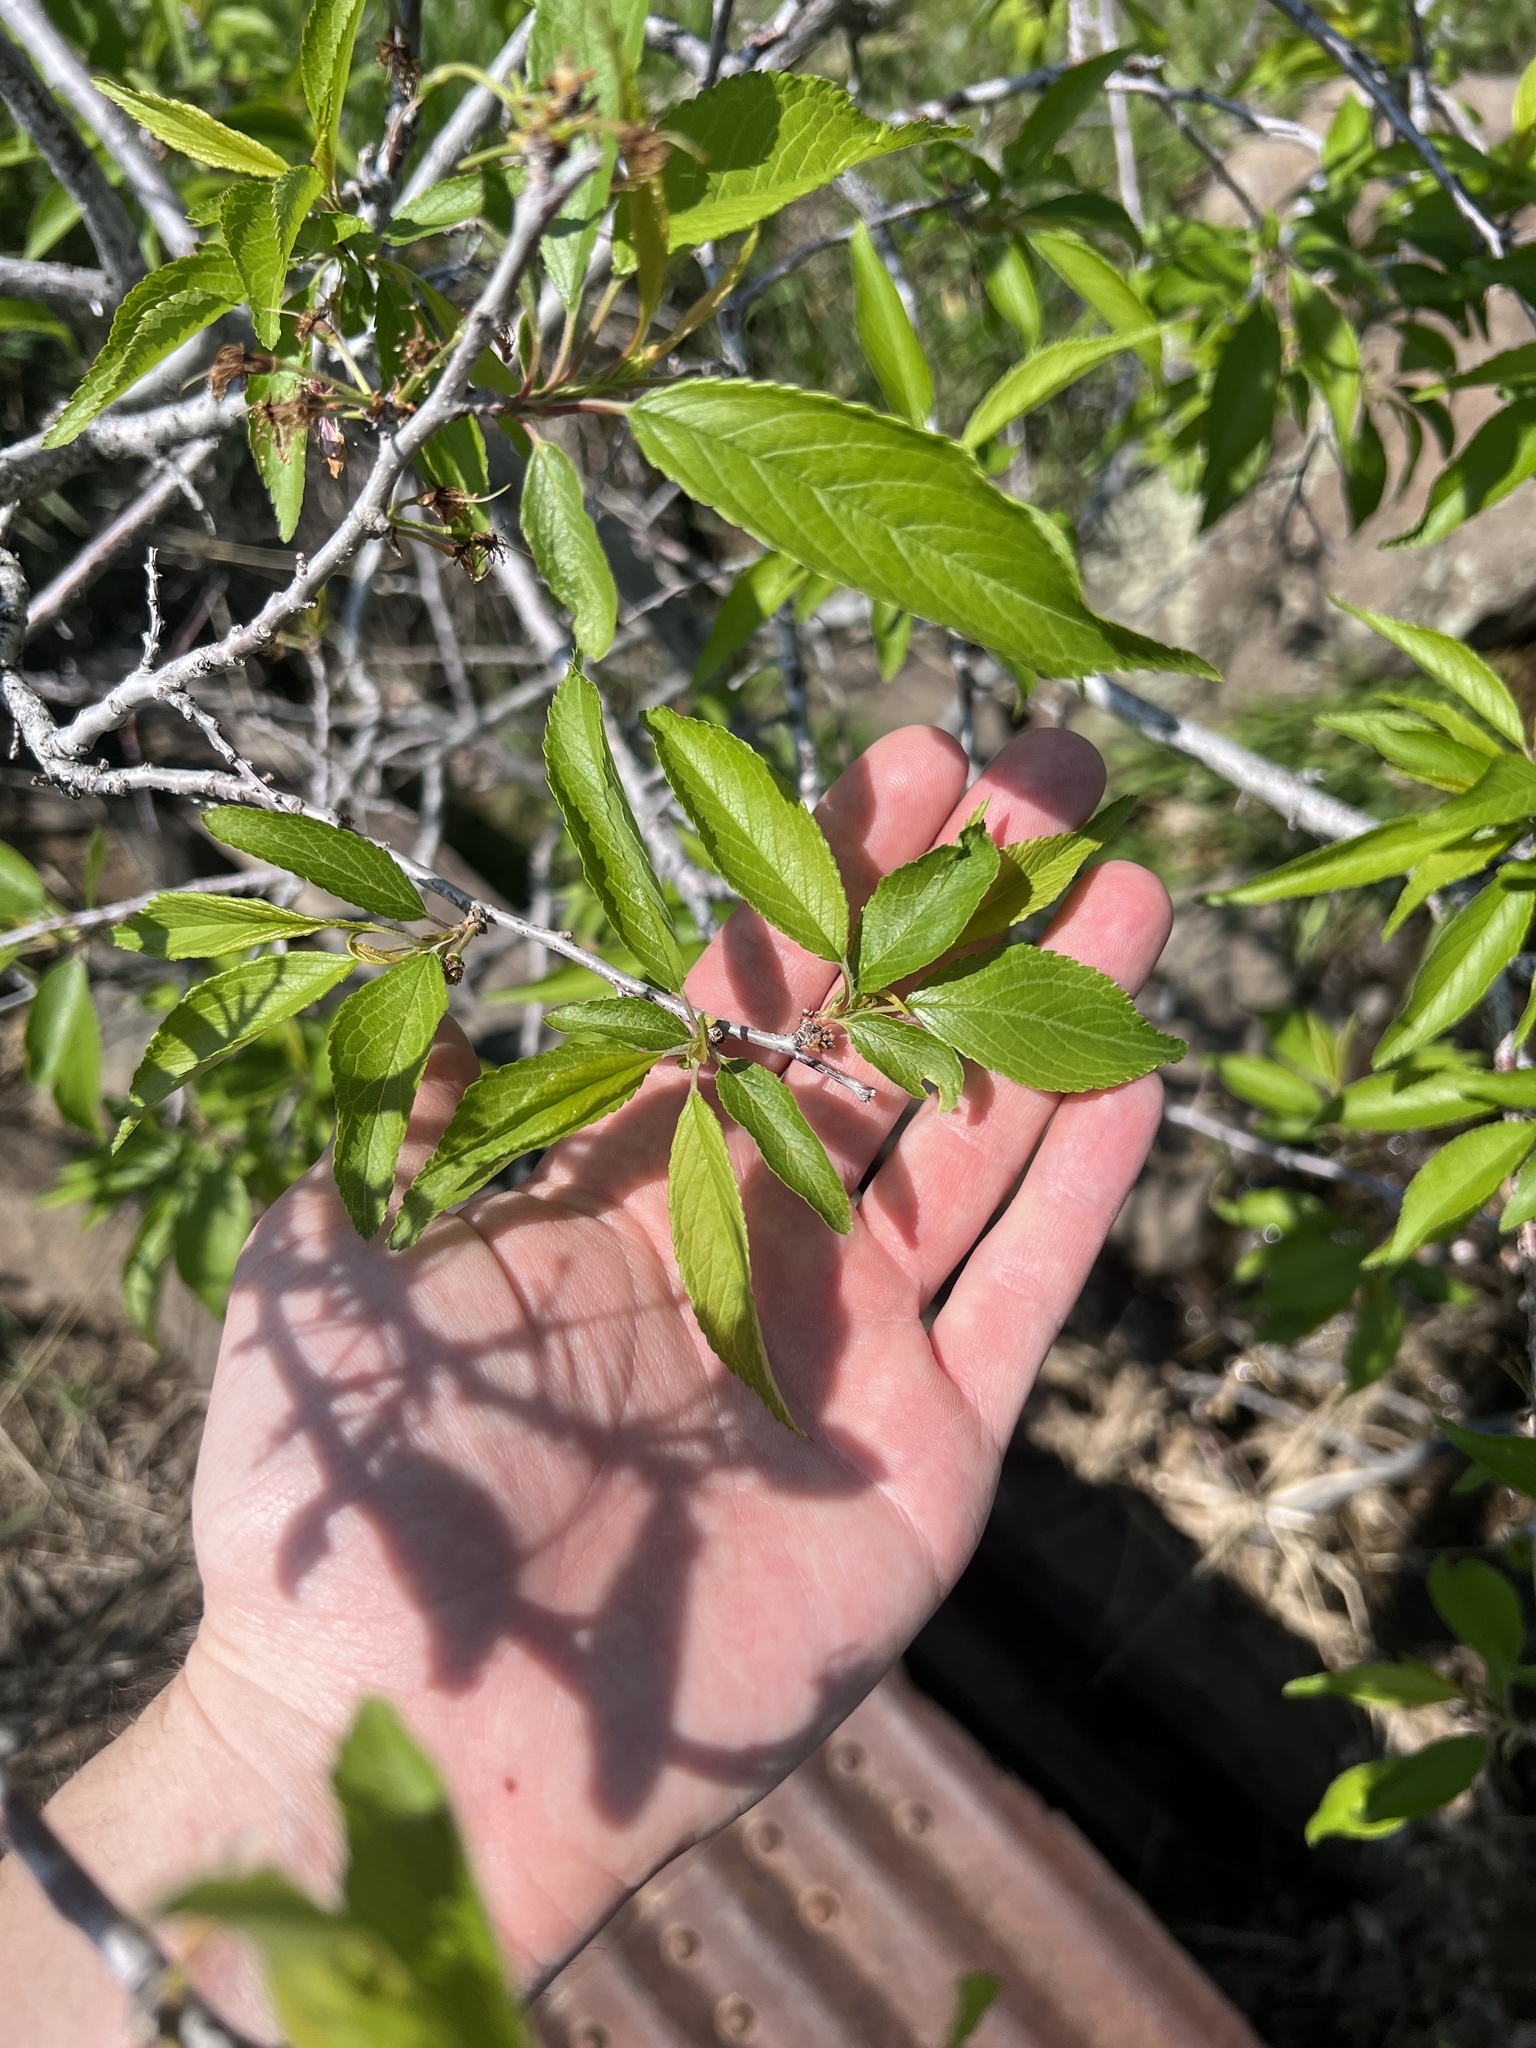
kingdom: Plantae
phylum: Tracheophyta
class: Magnoliopsida
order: Rosales
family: Rosaceae
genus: Prunus
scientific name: Prunus americana
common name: American plum
